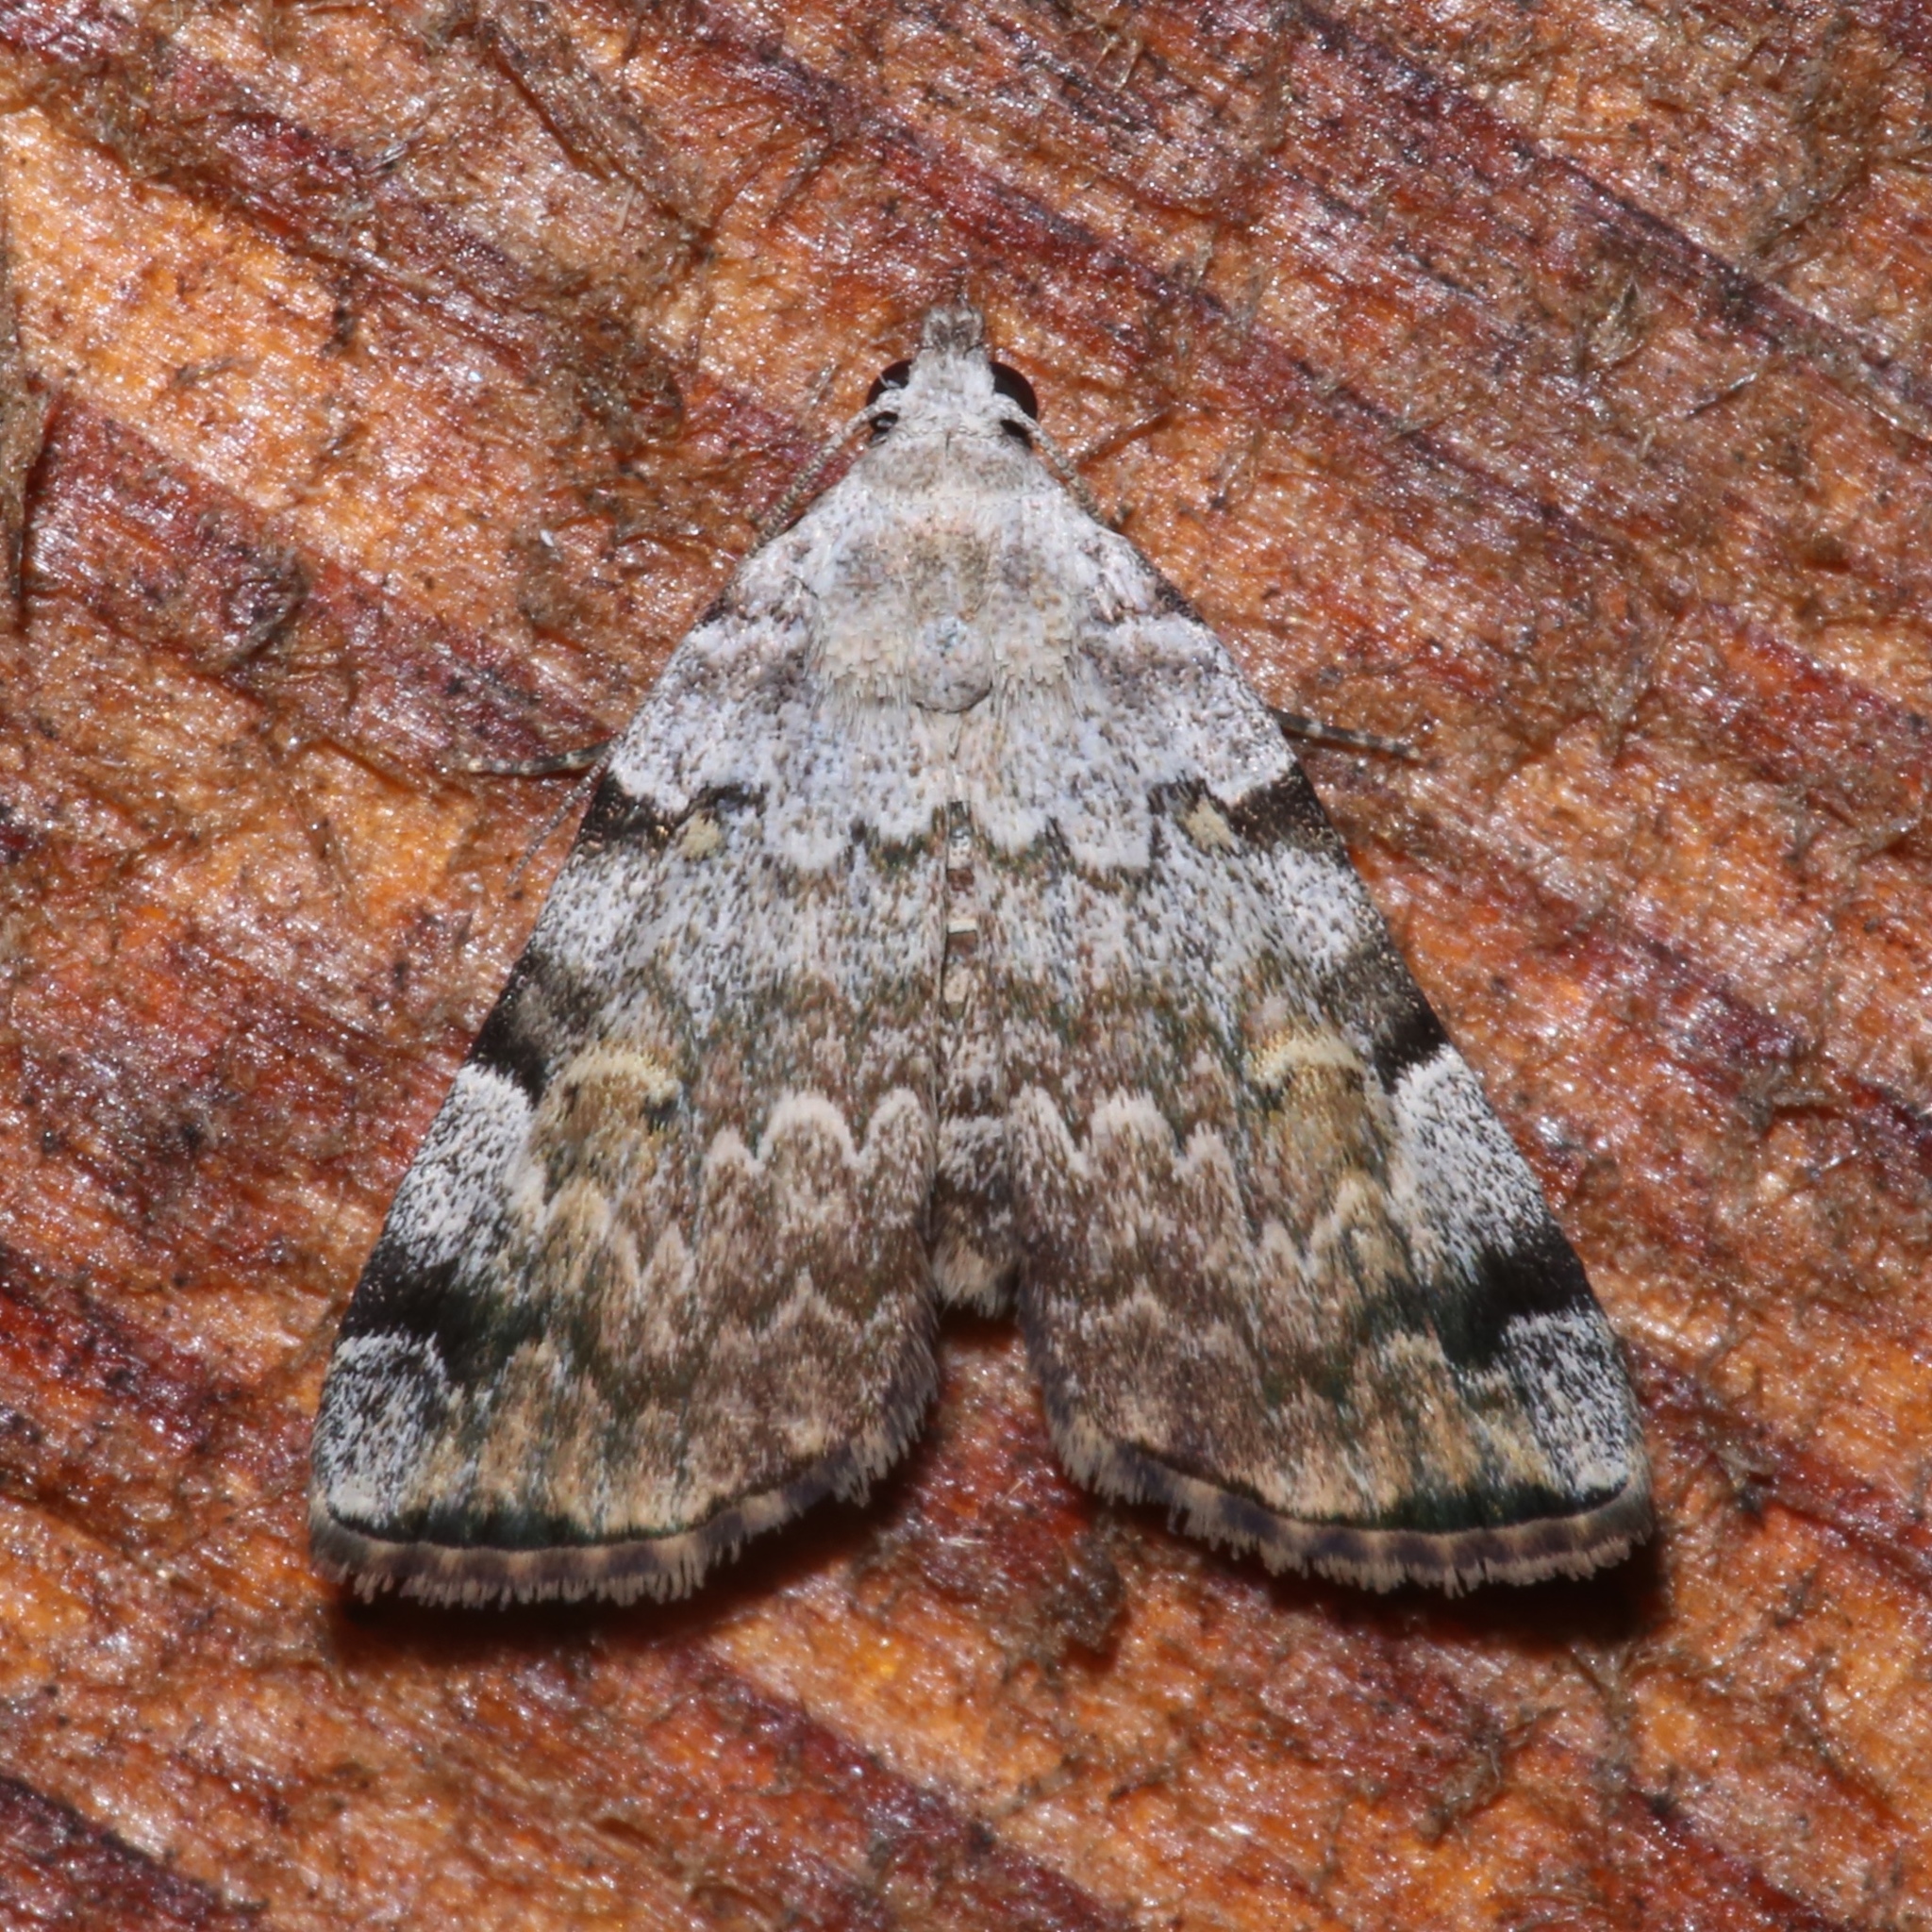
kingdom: Animalia
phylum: Arthropoda
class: Insecta
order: Lepidoptera
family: Erebidae
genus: Idia
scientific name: Idia americalis
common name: American idia moth
